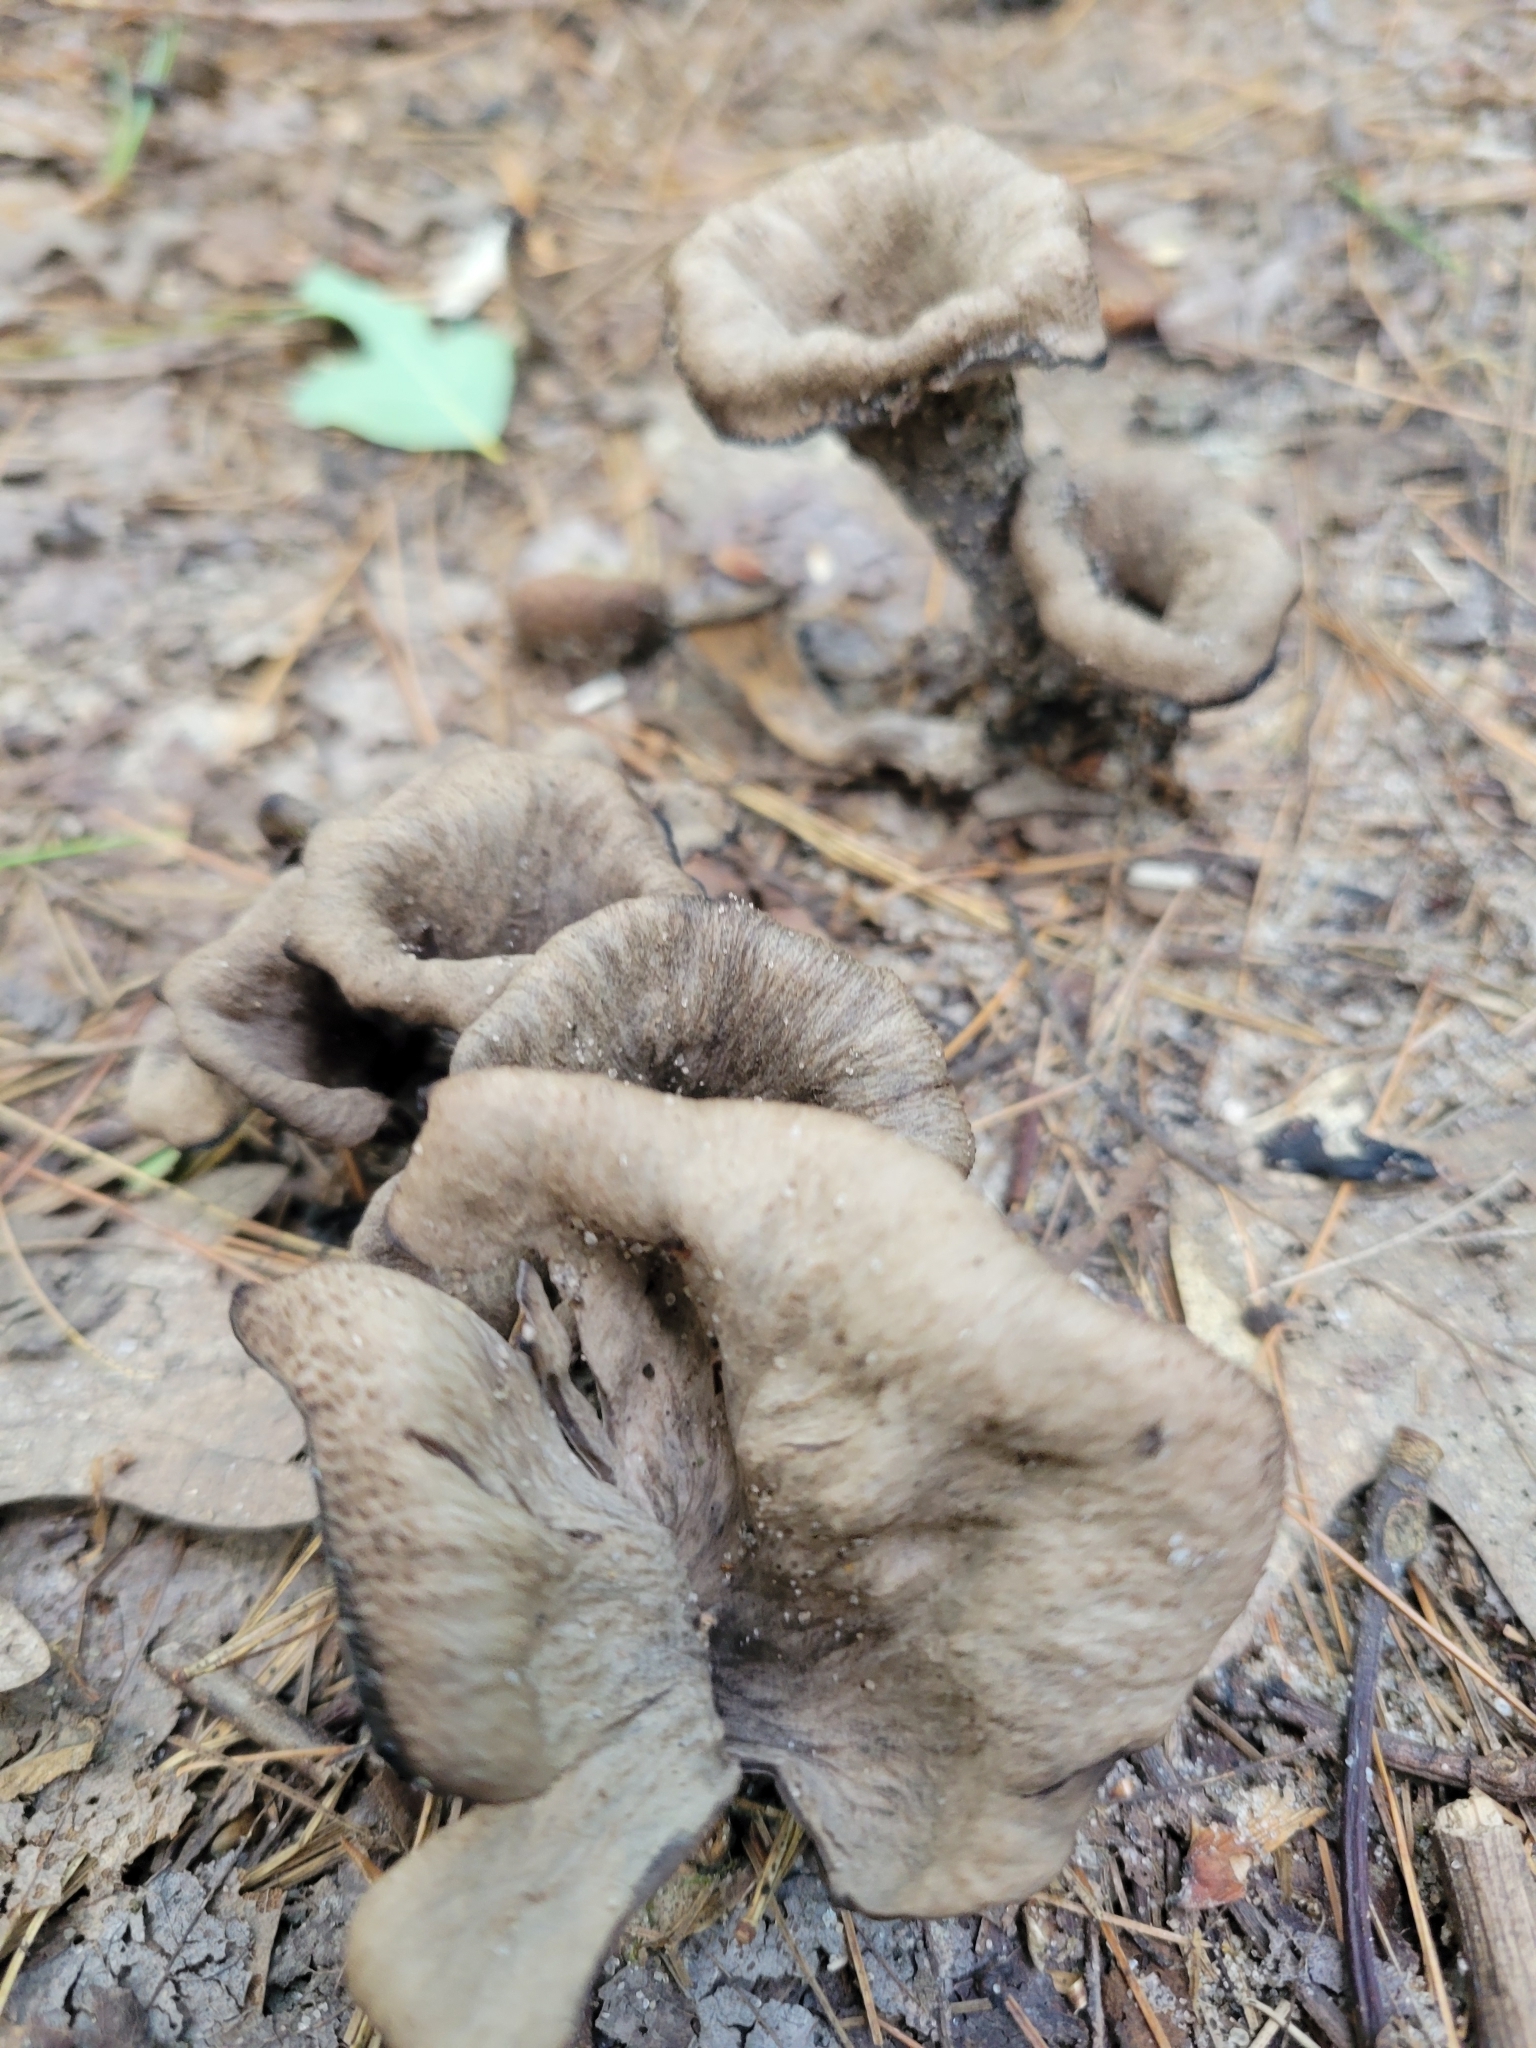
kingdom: Fungi
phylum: Basidiomycota
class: Agaricomycetes
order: Cantharellales
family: Hydnaceae
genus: Craterellus
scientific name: Craterellus cornucopioides
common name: Horn of plenty
